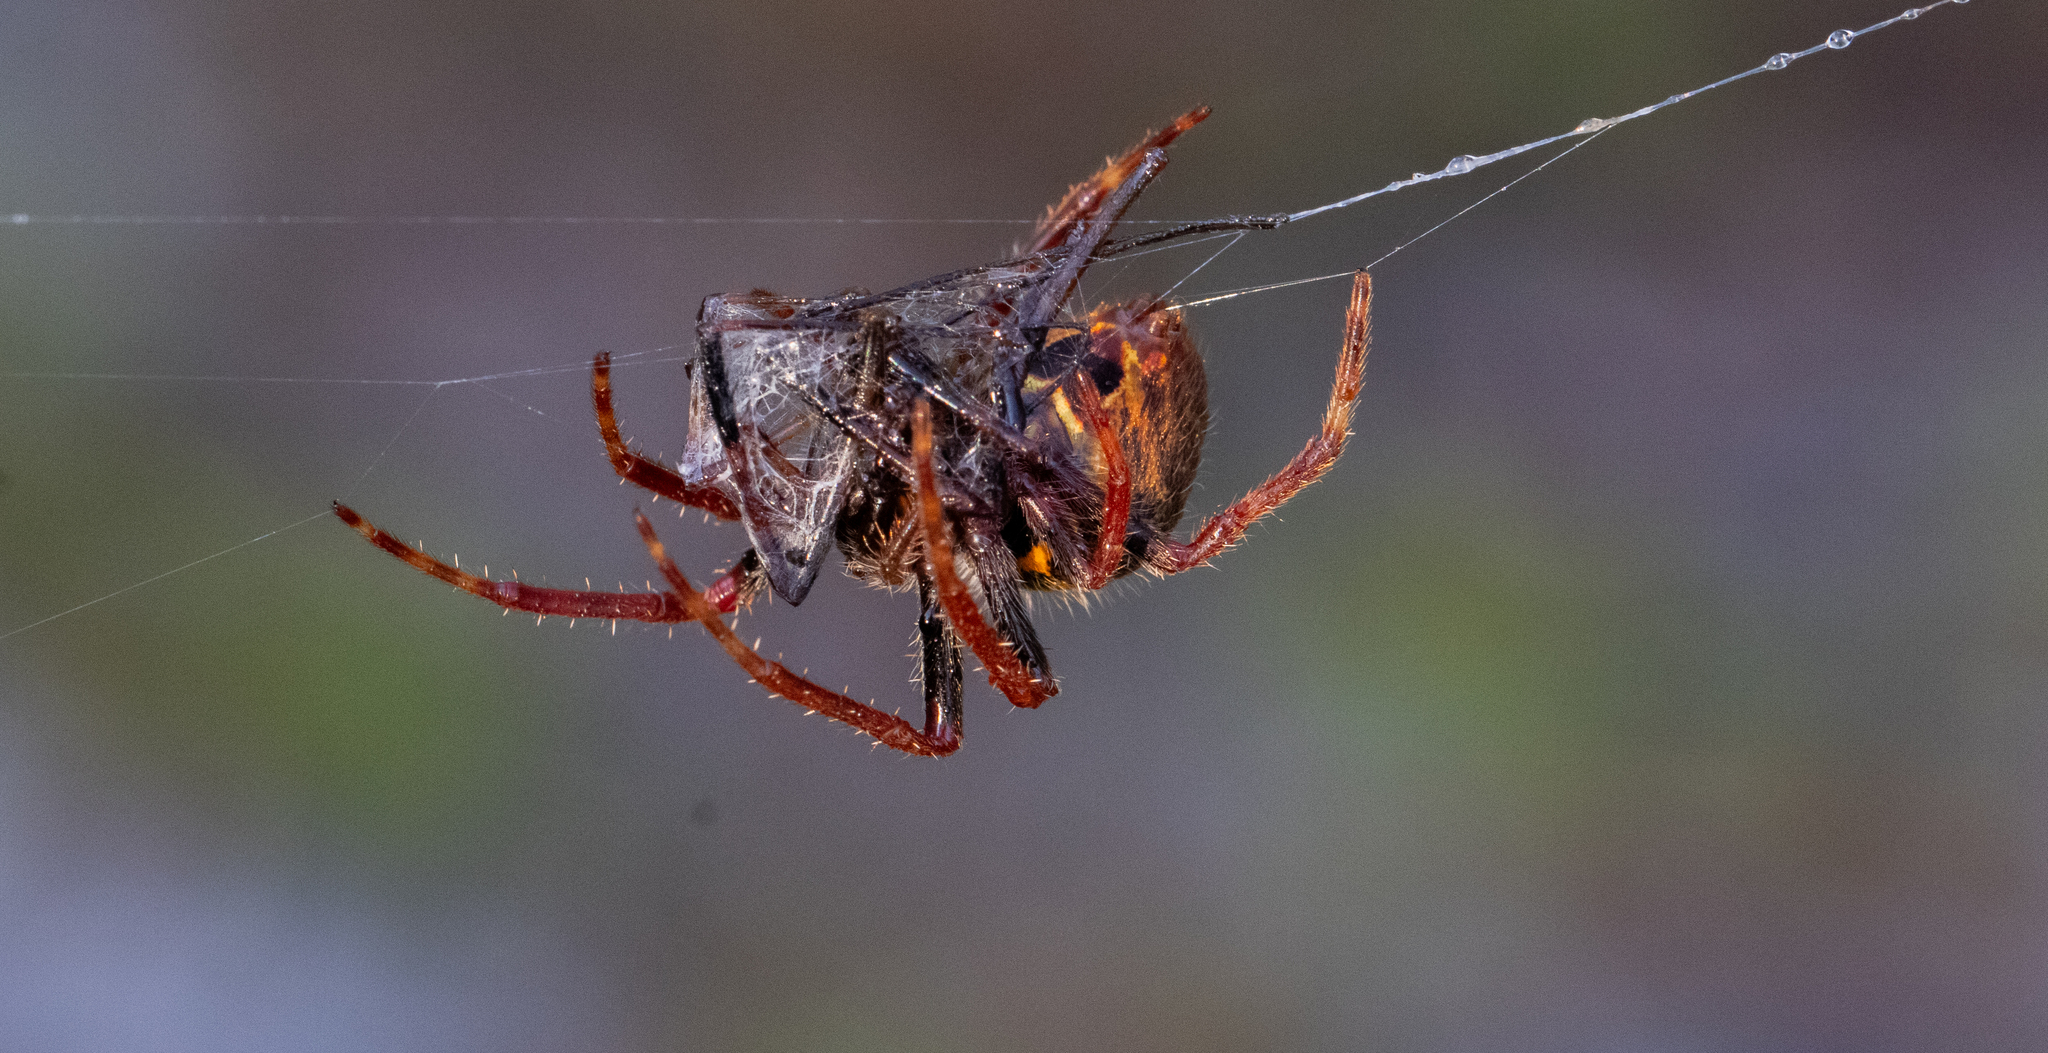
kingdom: Animalia
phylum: Arthropoda
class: Arachnida
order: Araneae
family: Araneidae
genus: Eriophora
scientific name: Eriophora ravilla
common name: Orb weavers
